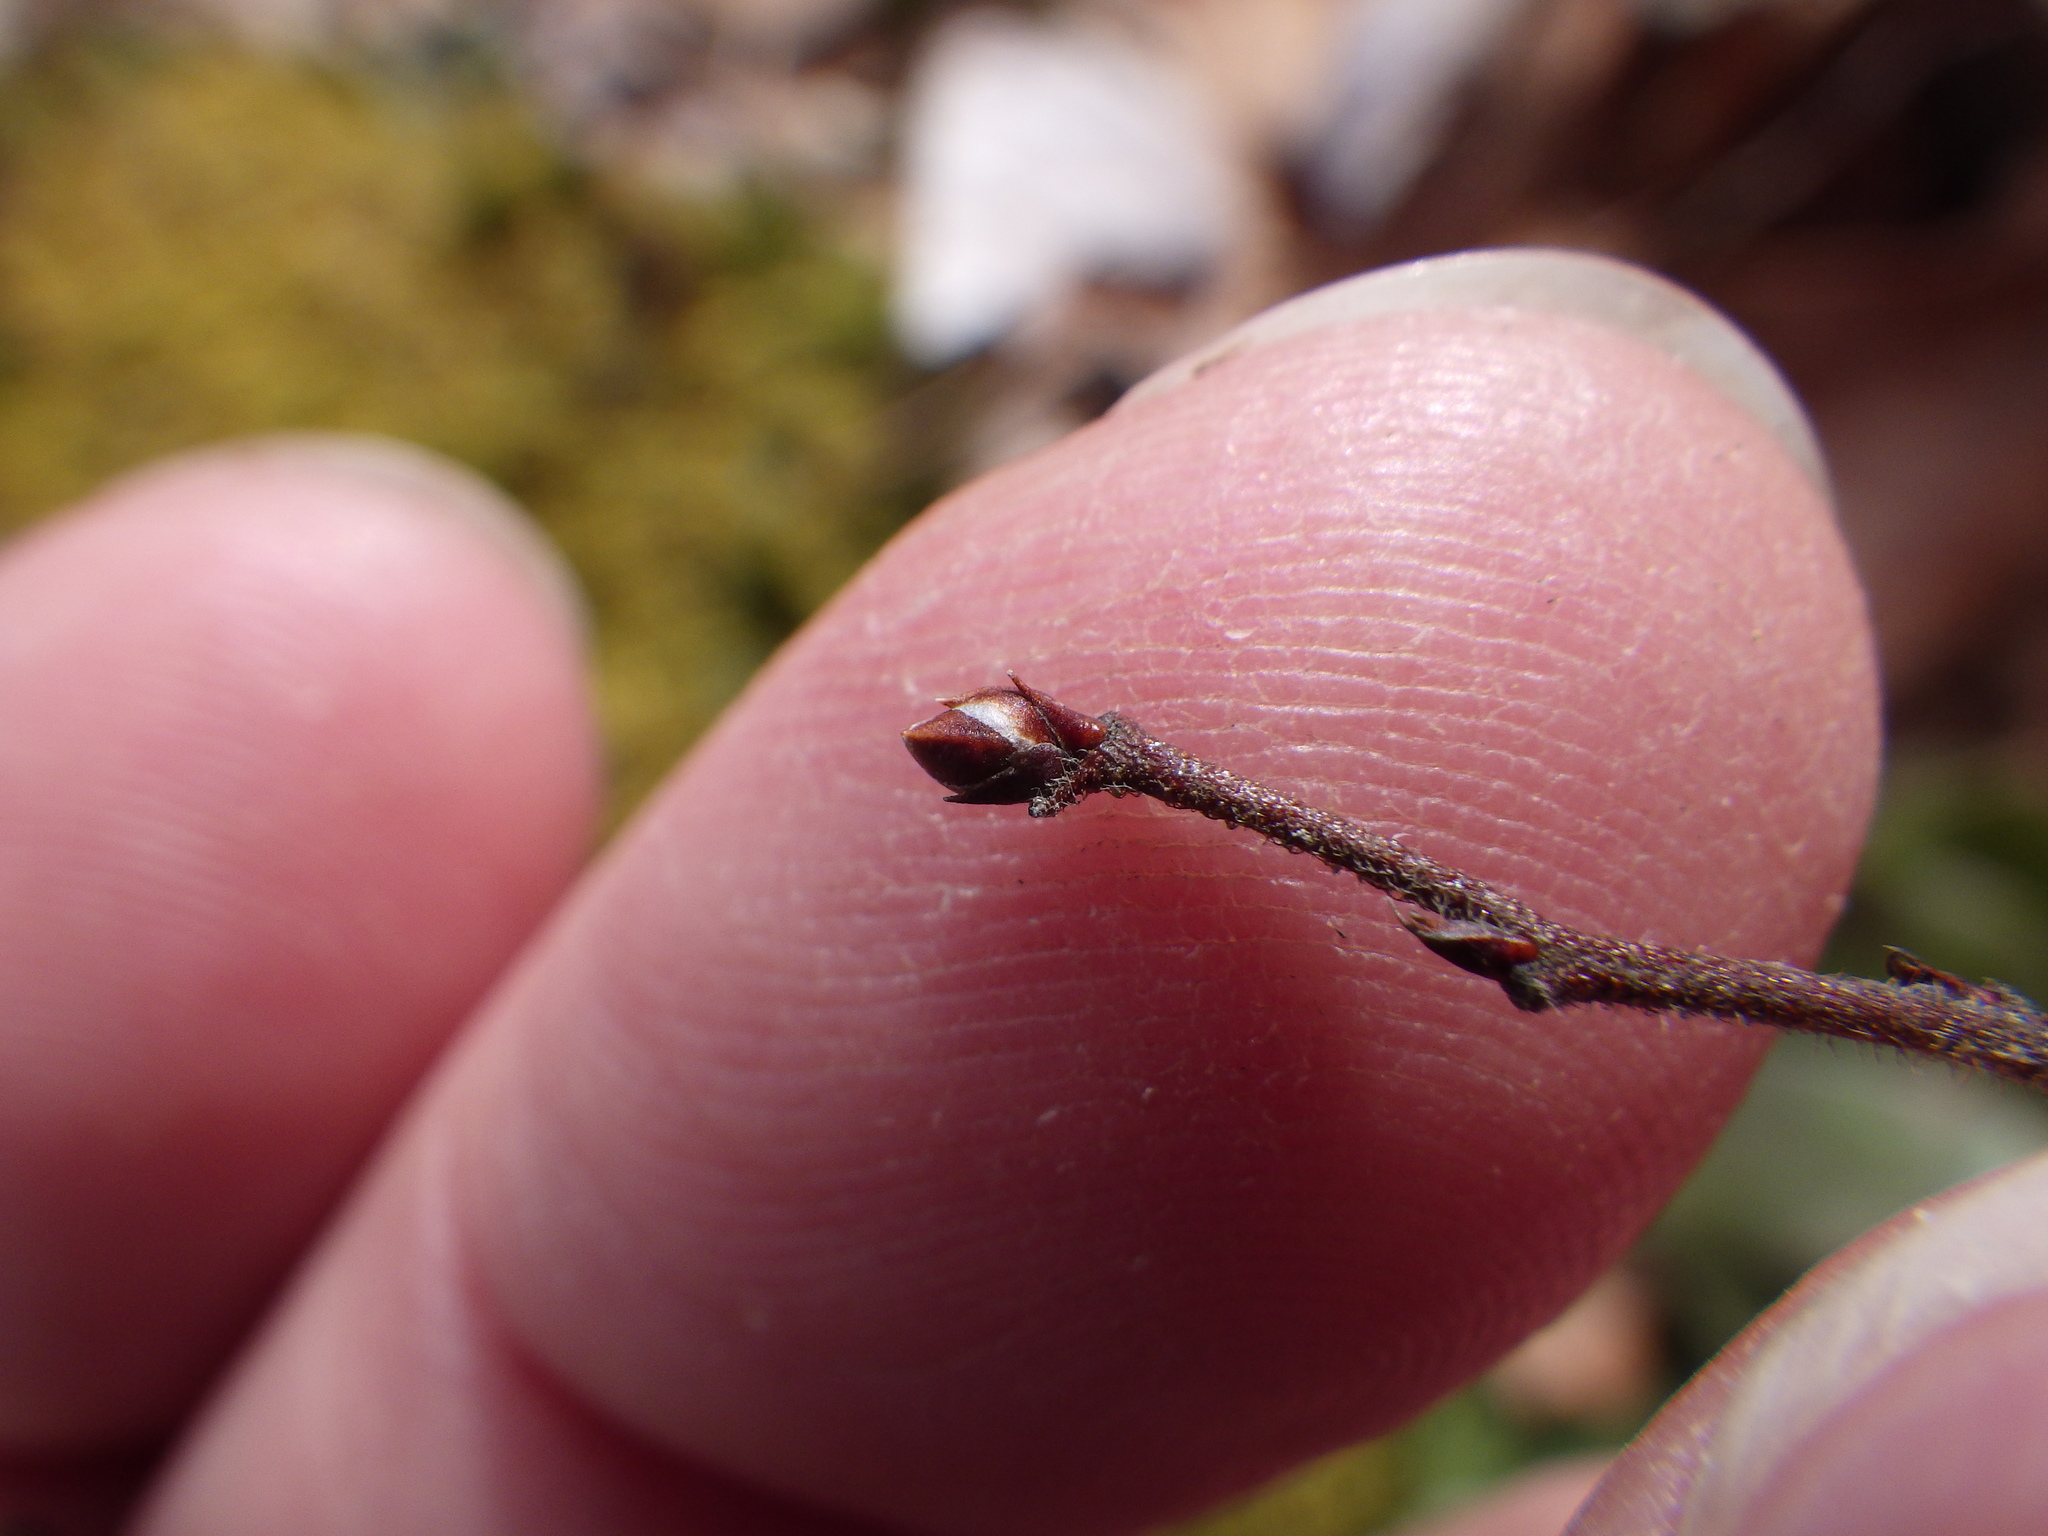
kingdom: Animalia
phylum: Arthropoda
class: Insecta
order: Hymenoptera
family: Pteromalidae
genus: Hemadas
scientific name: Hemadas nubilipennis
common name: Blueberry stem gall wasp
